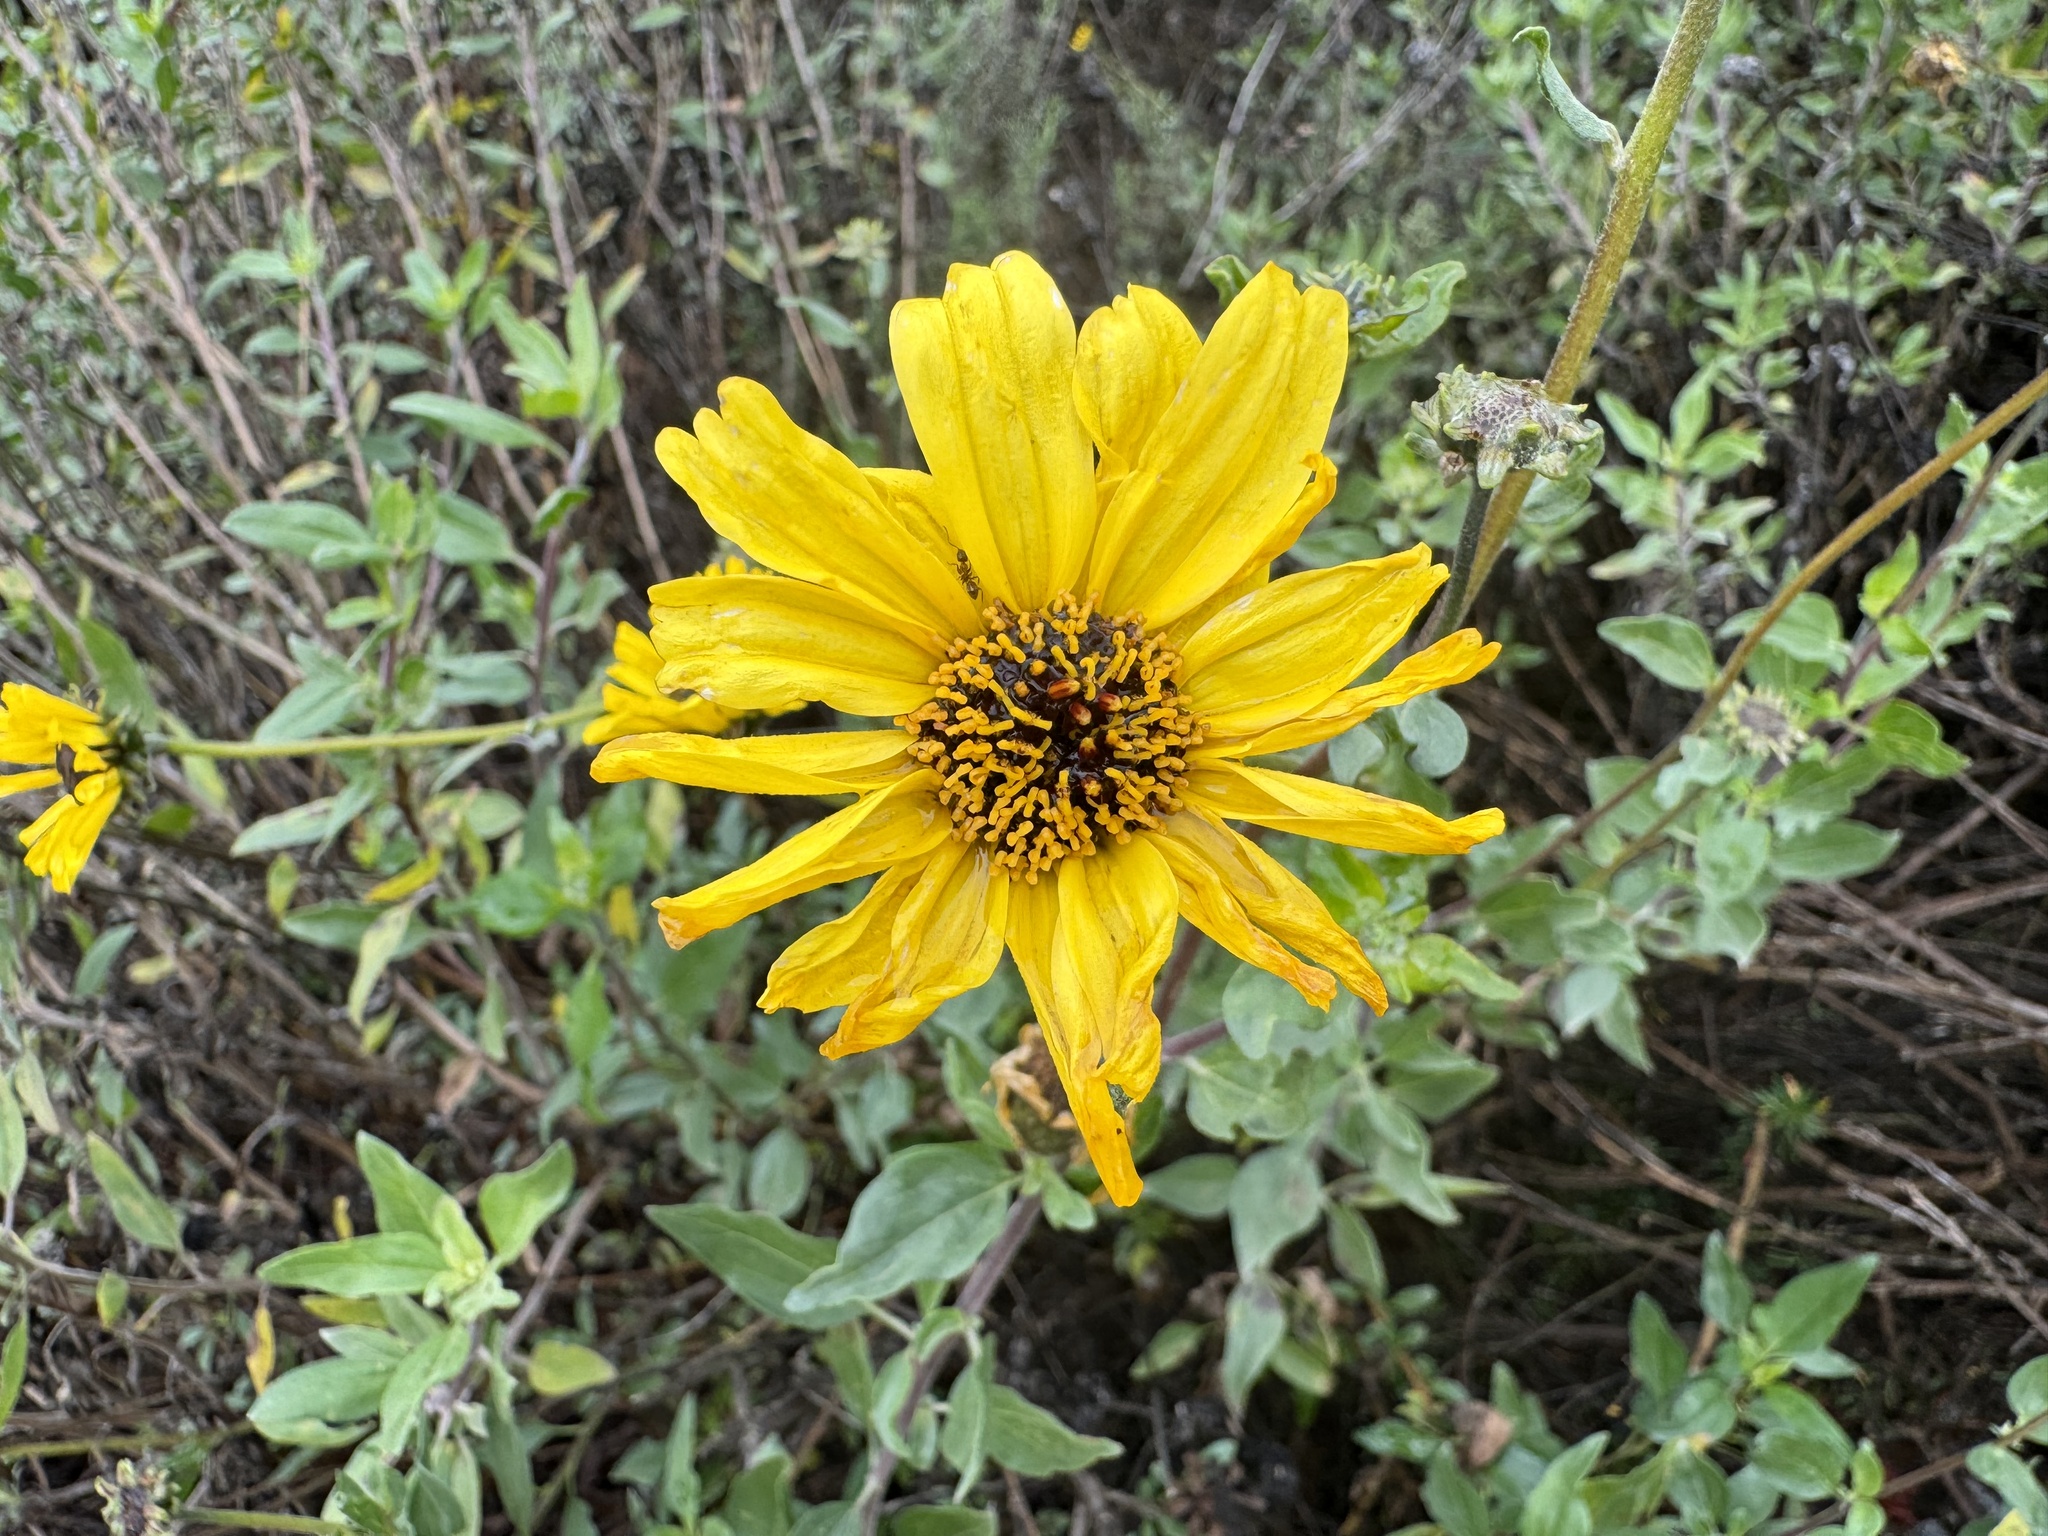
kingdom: Plantae
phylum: Tracheophyta
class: Magnoliopsida
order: Asterales
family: Asteraceae
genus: Encelia
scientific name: Encelia californica
